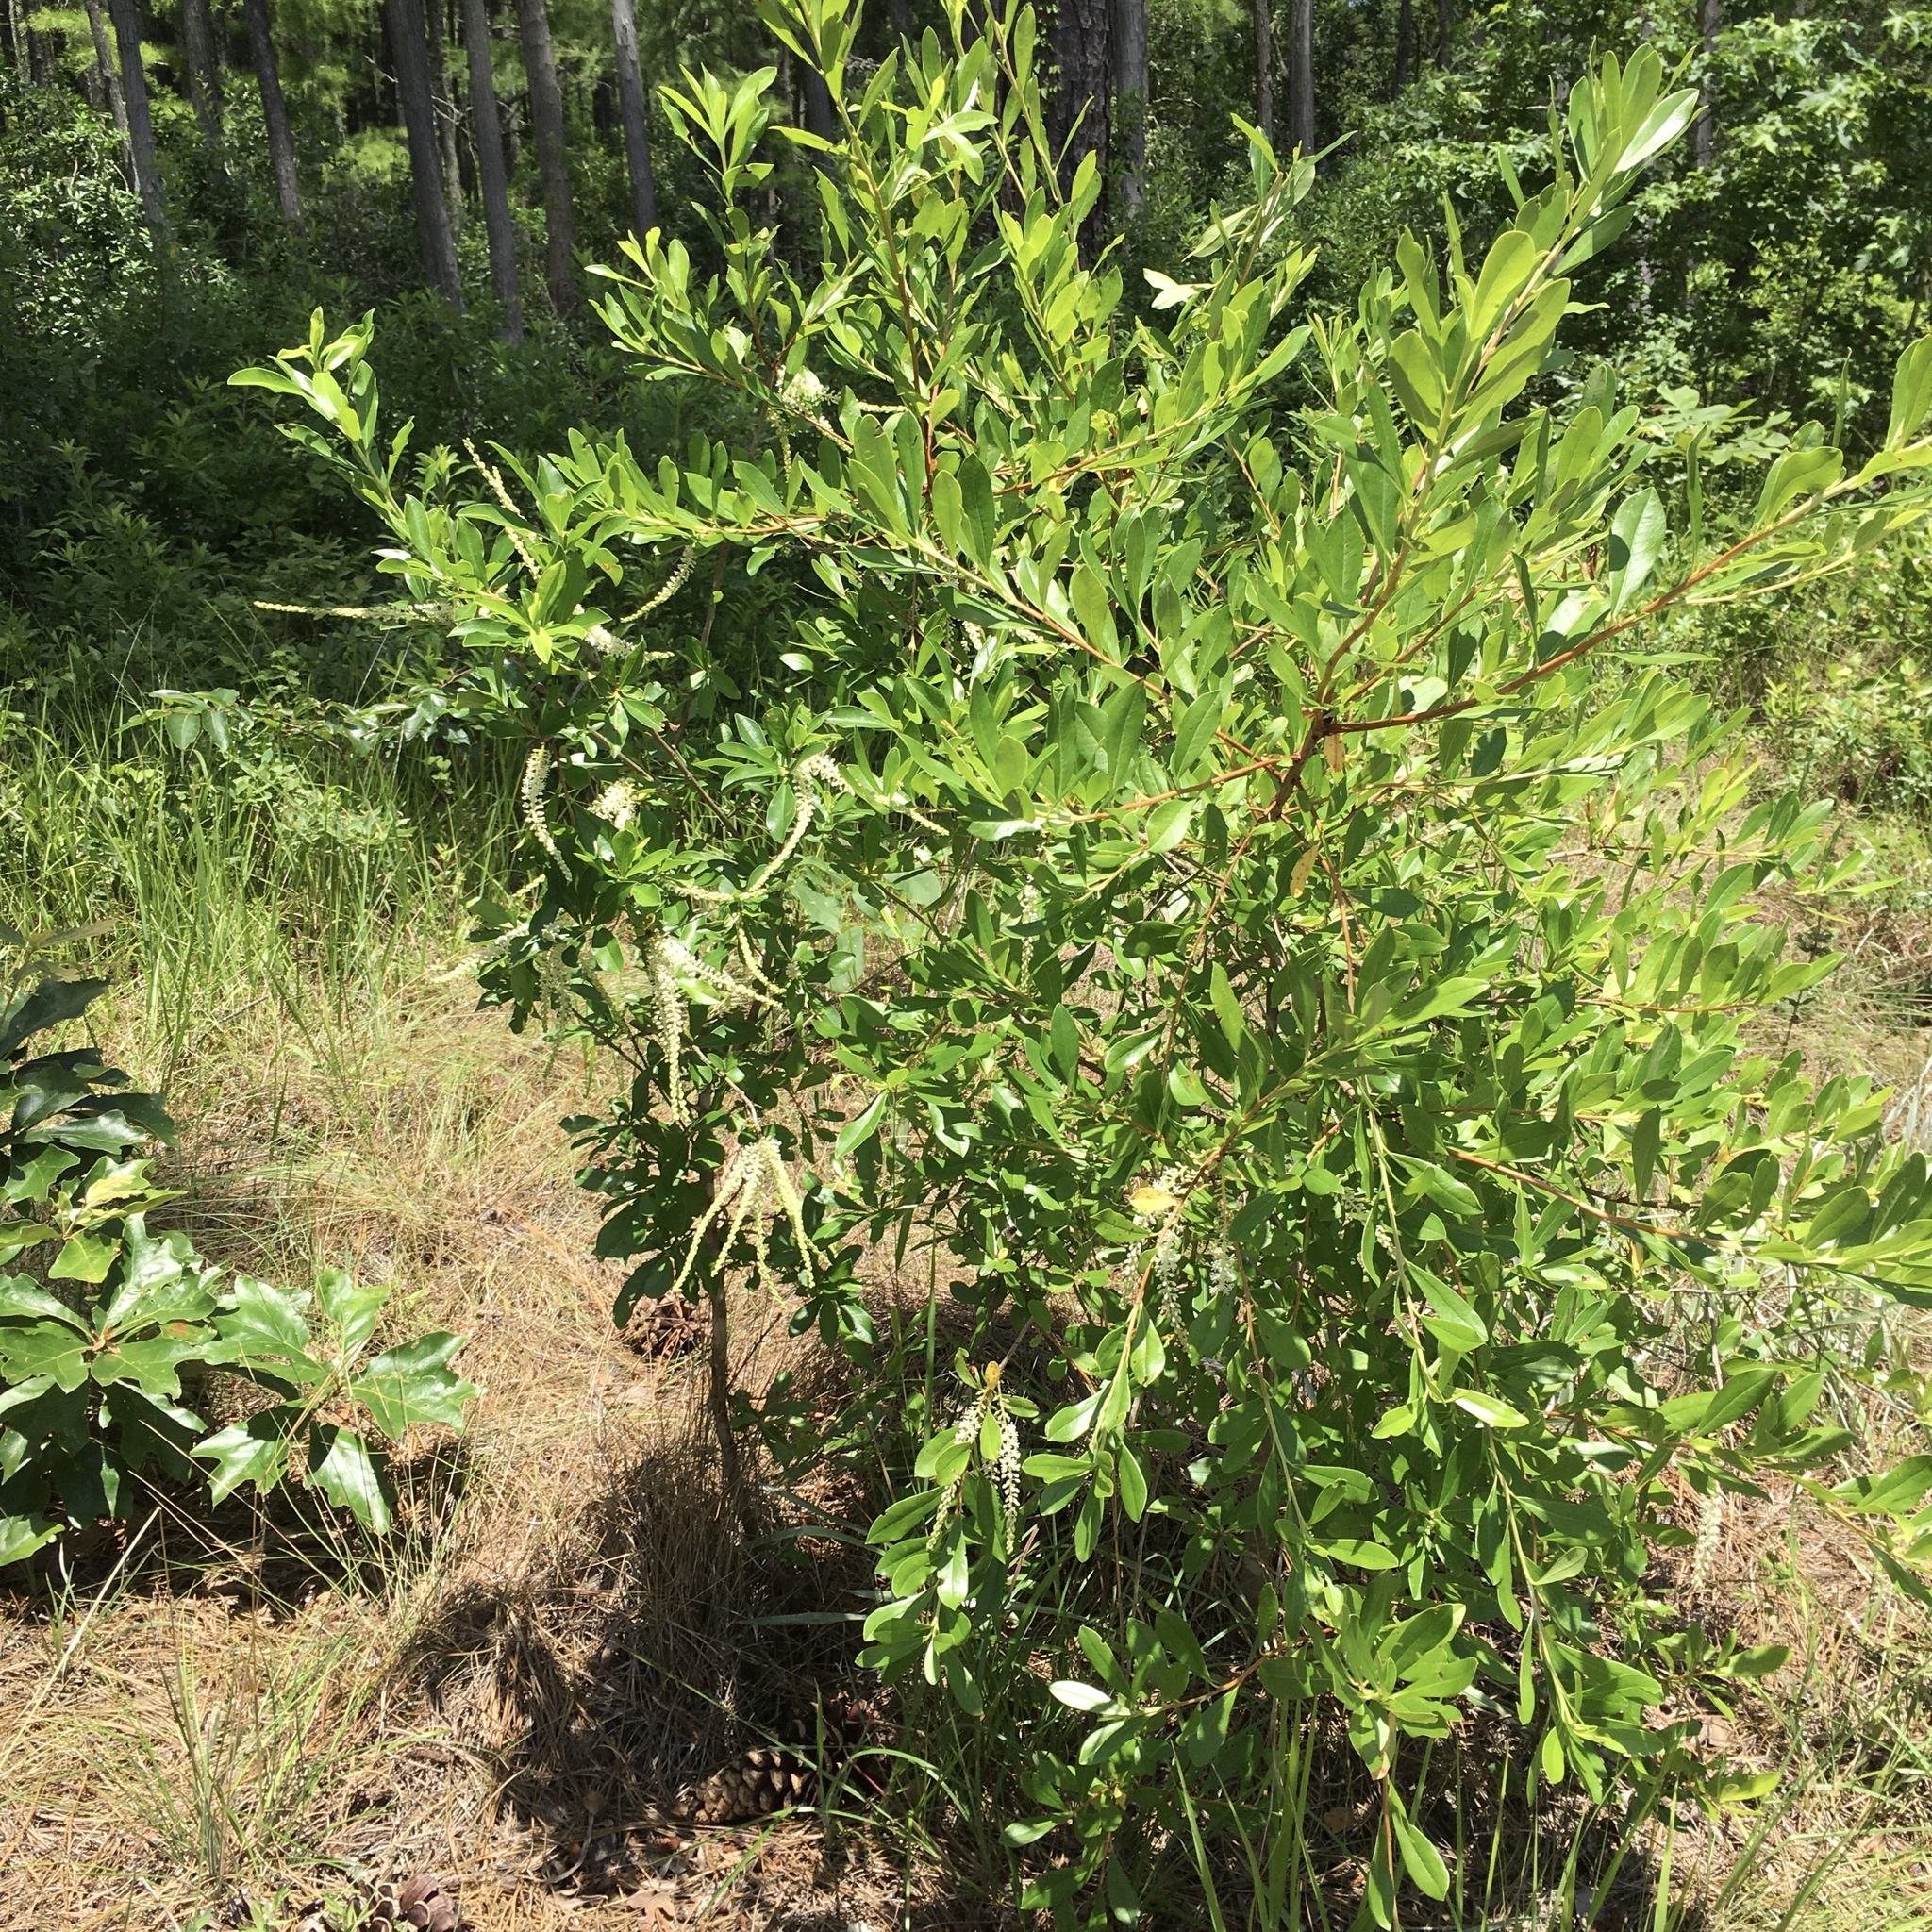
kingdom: Plantae
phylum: Tracheophyta
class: Magnoliopsida
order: Ericales
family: Cyrillaceae
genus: Cyrilla
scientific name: Cyrilla racemiflora
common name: Black titi
